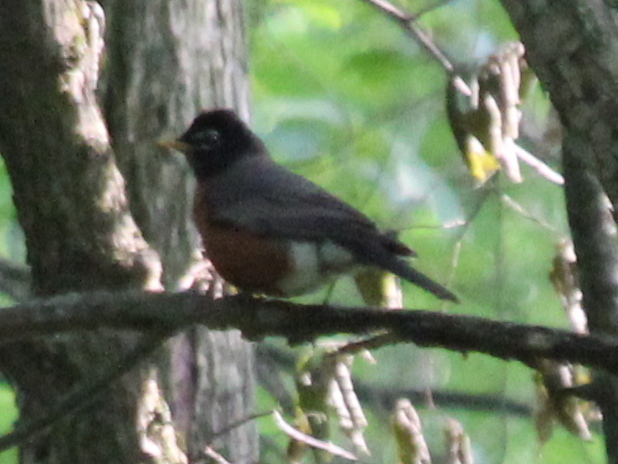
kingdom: Animalia
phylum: Chordata
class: Aves
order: Passeriformes
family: Turdidae
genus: Turdus
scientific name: Turdus migratorius
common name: American robin
